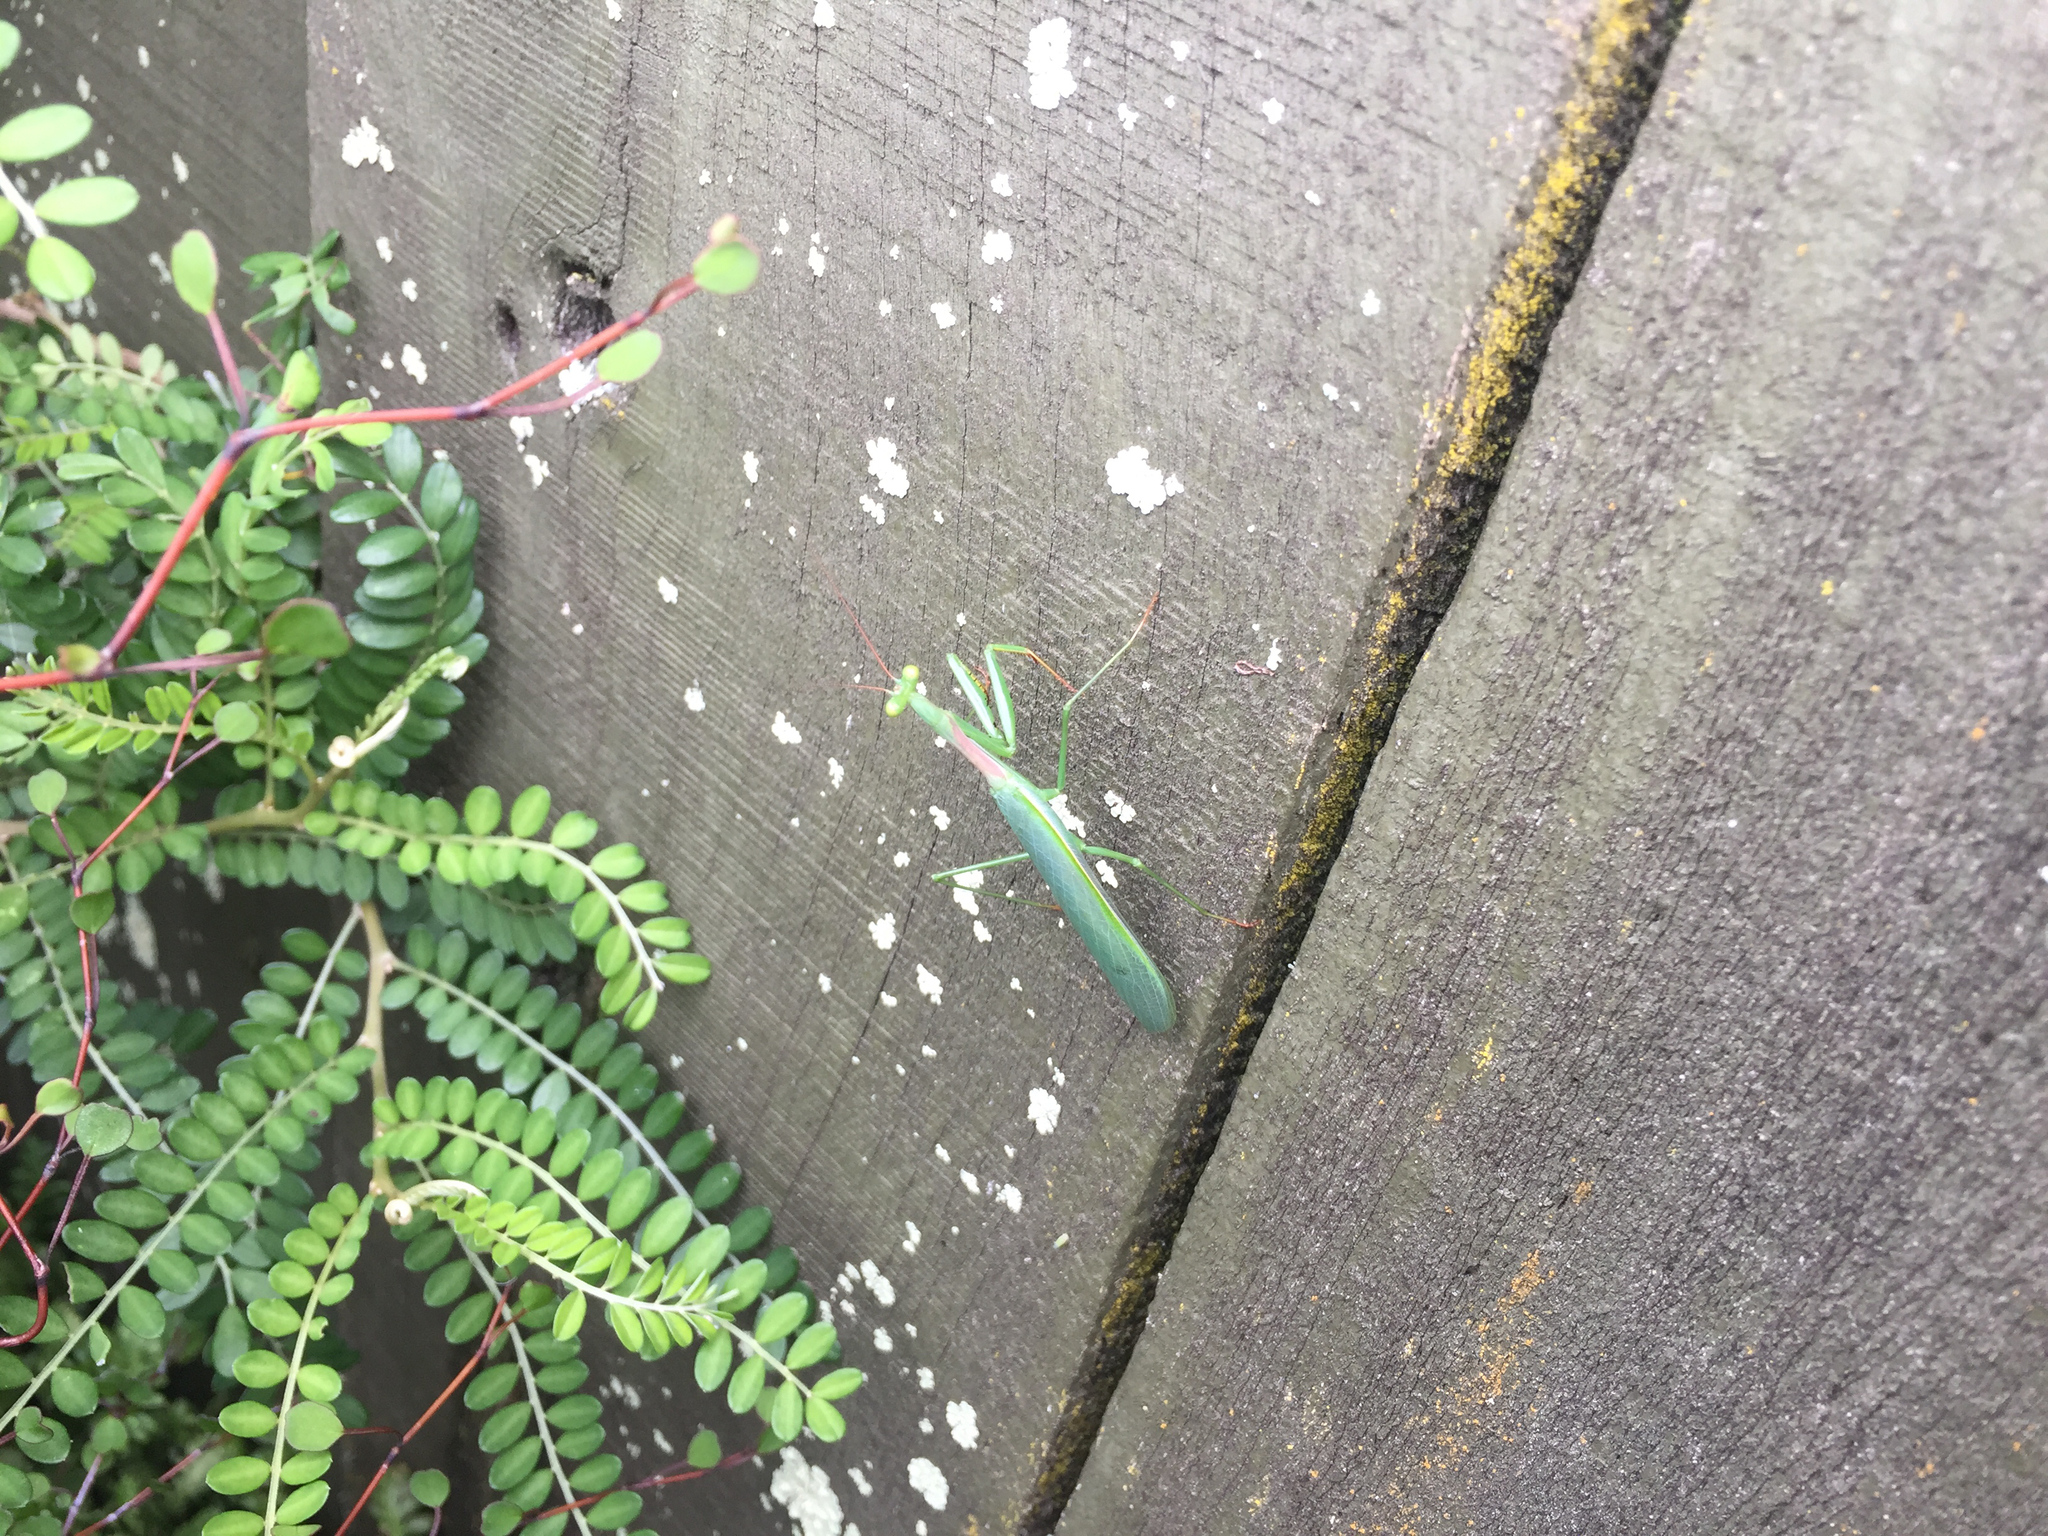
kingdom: Animalia
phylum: Arthropoda
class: Insecta
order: Mantodea
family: Miomantidae
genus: Miomantis
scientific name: Miomantis caffra
